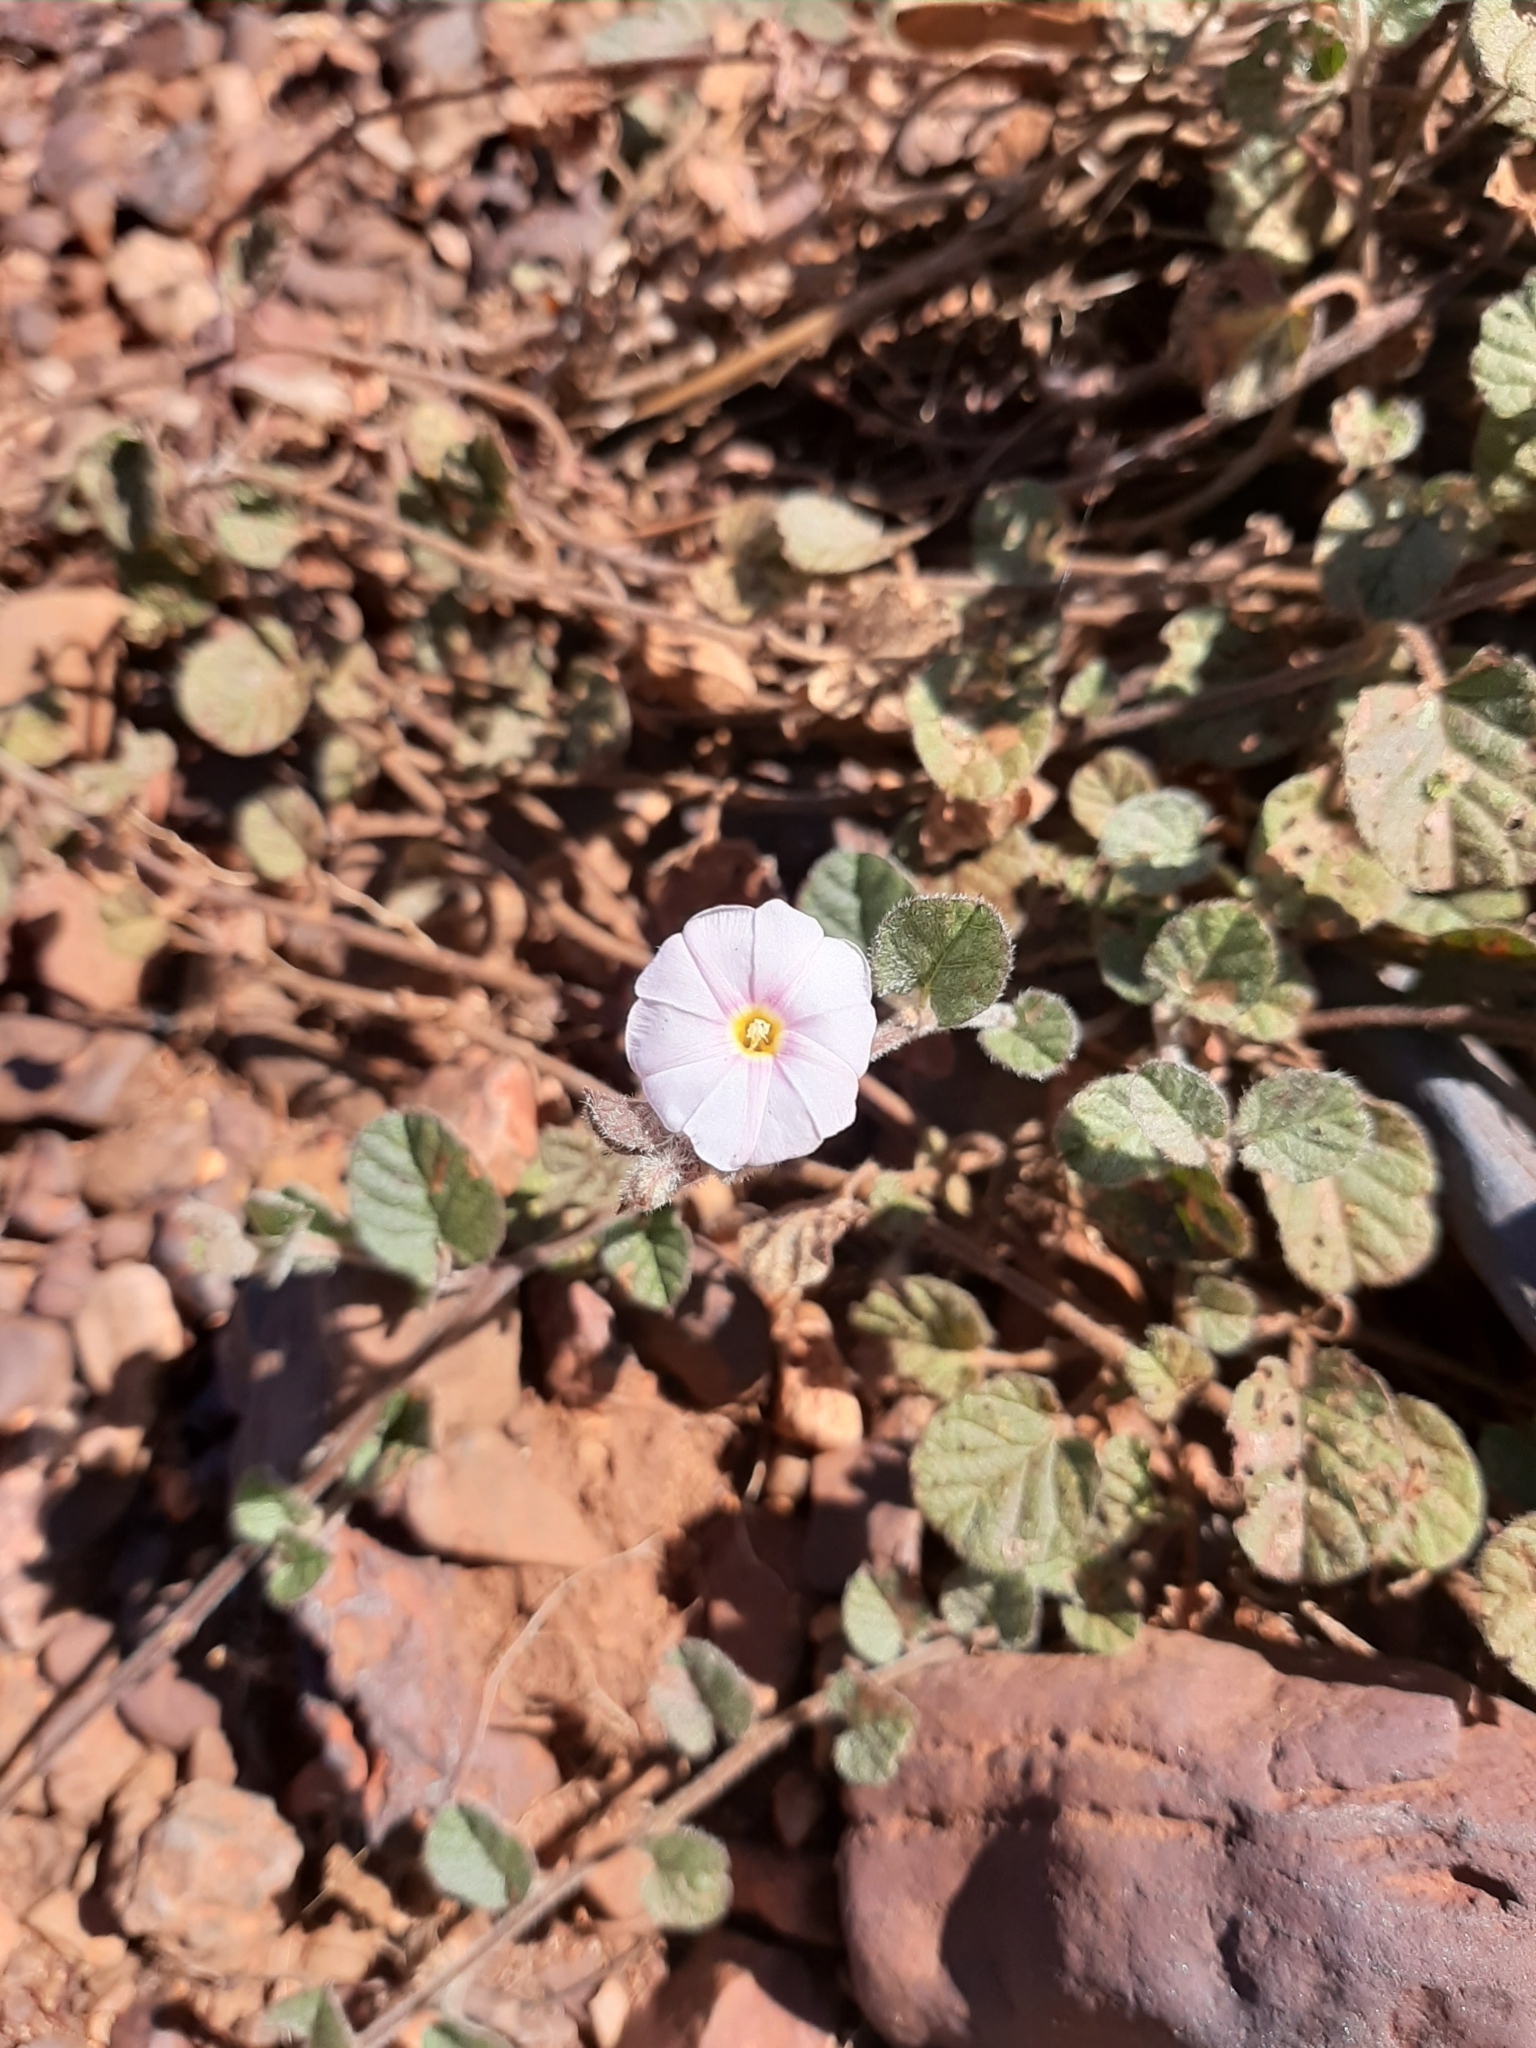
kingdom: Plantae
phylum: Tracheophyta
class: Magnoliopsida
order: Solanales
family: Convolvulaceae
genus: Bonamia
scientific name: Bonamia erecta
